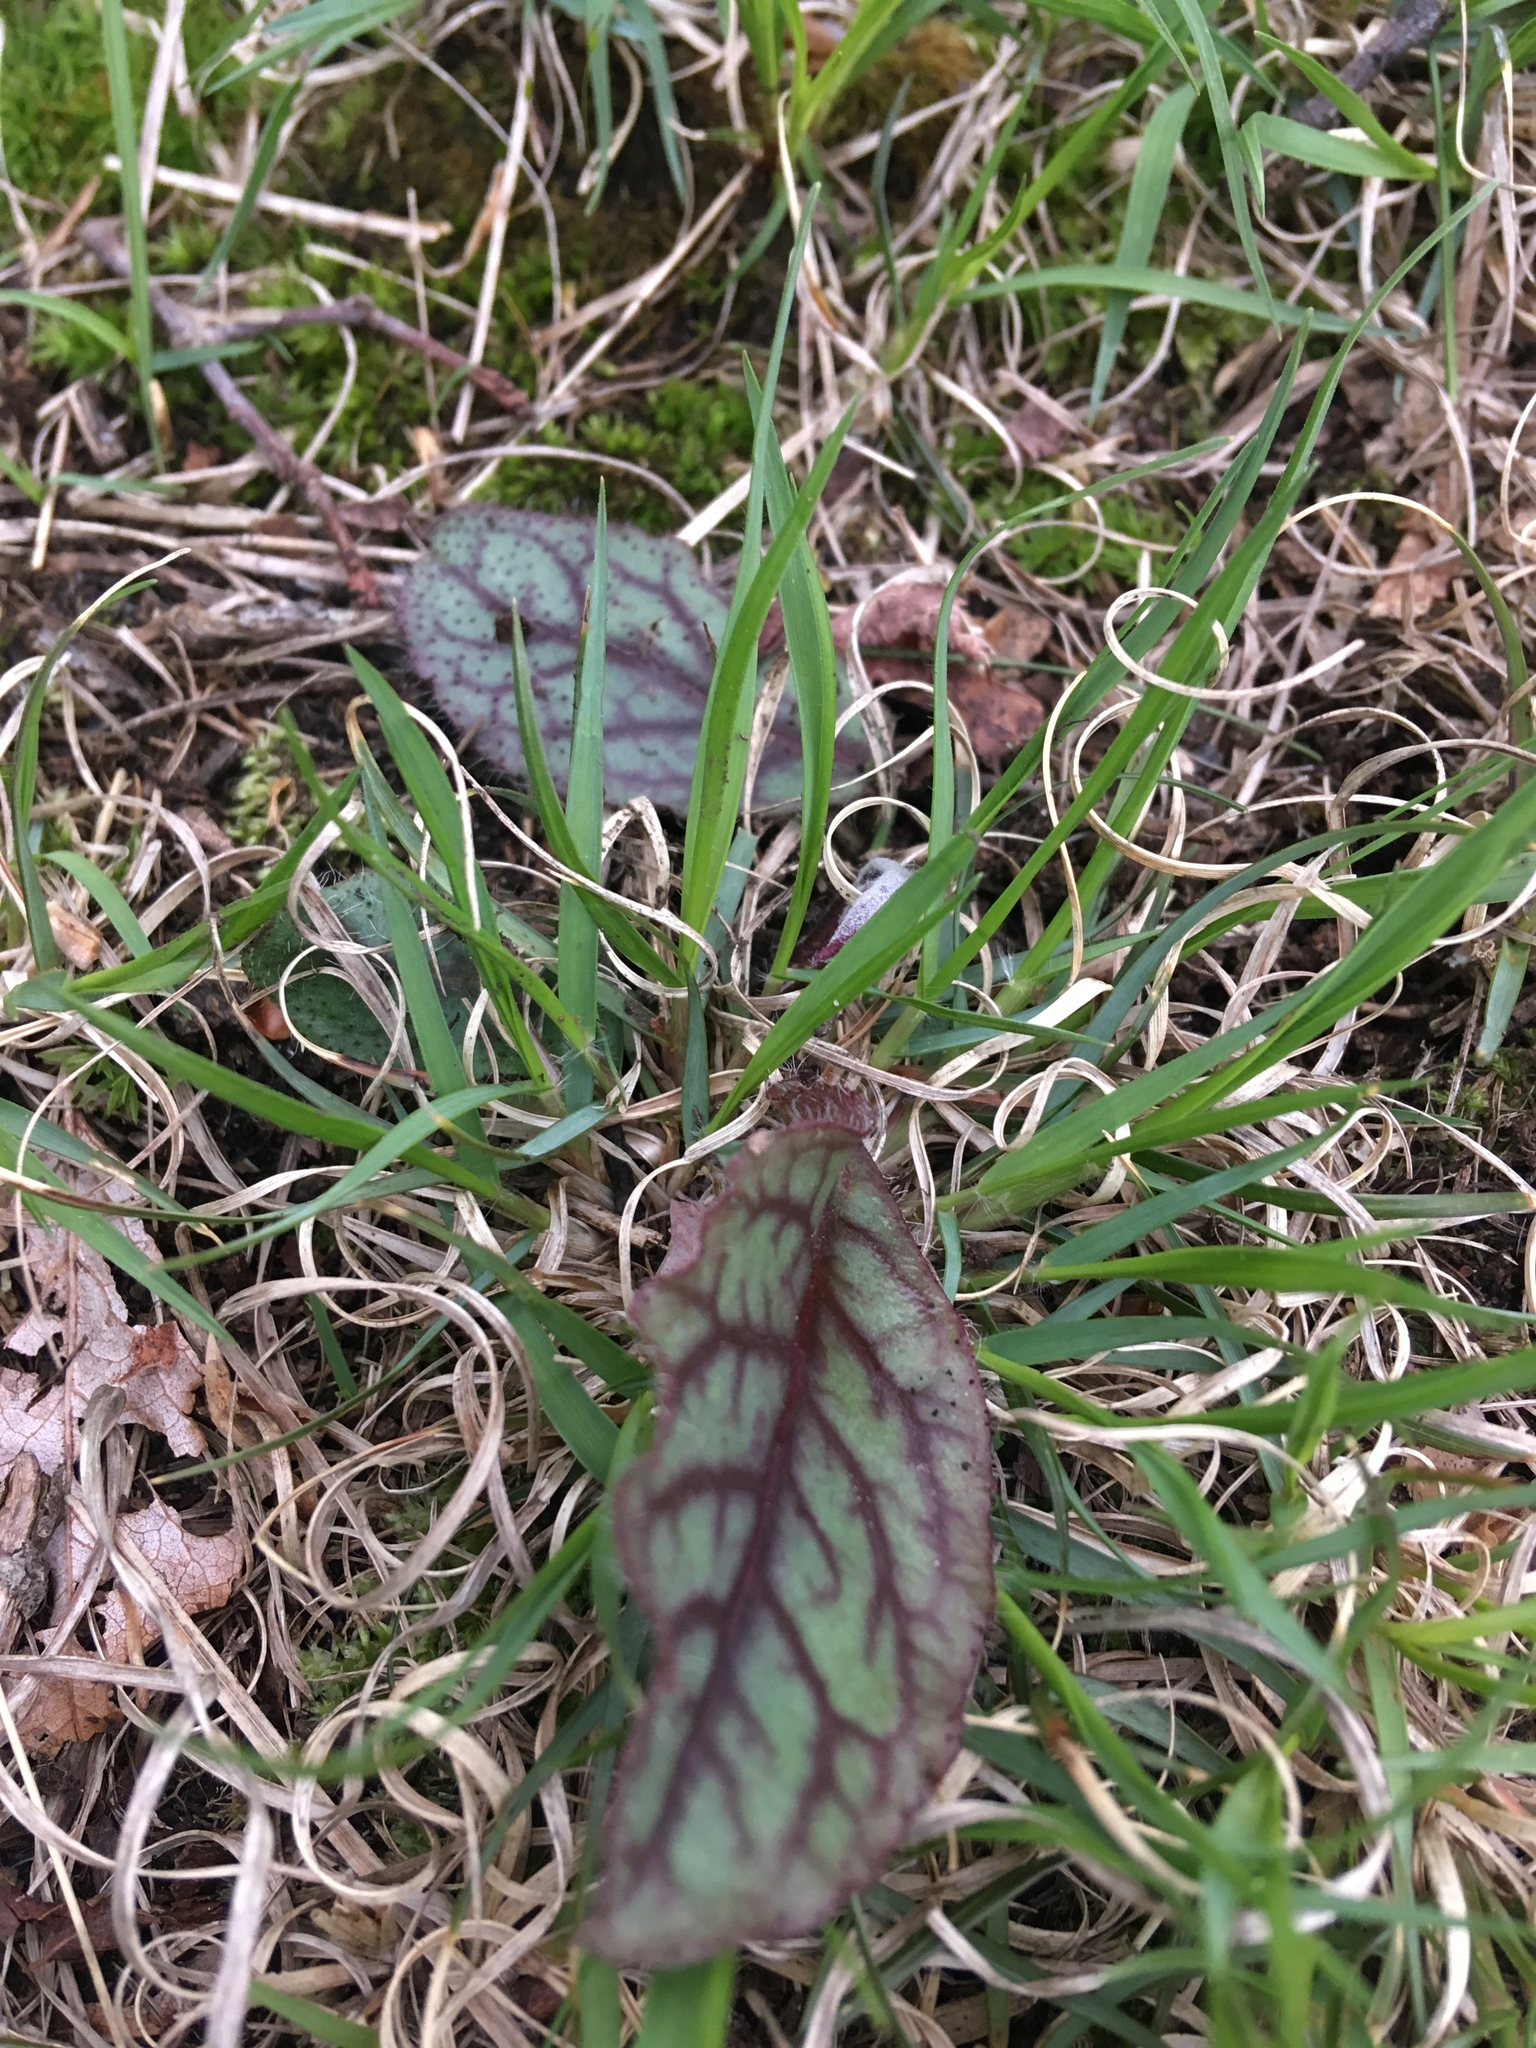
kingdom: Plantae
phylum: Tracheophyta
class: Magnoliopsida
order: Asterales
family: Asteraceae
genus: Hieracium
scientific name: Hieracium venosum
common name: Rattlesnake hawkweed
